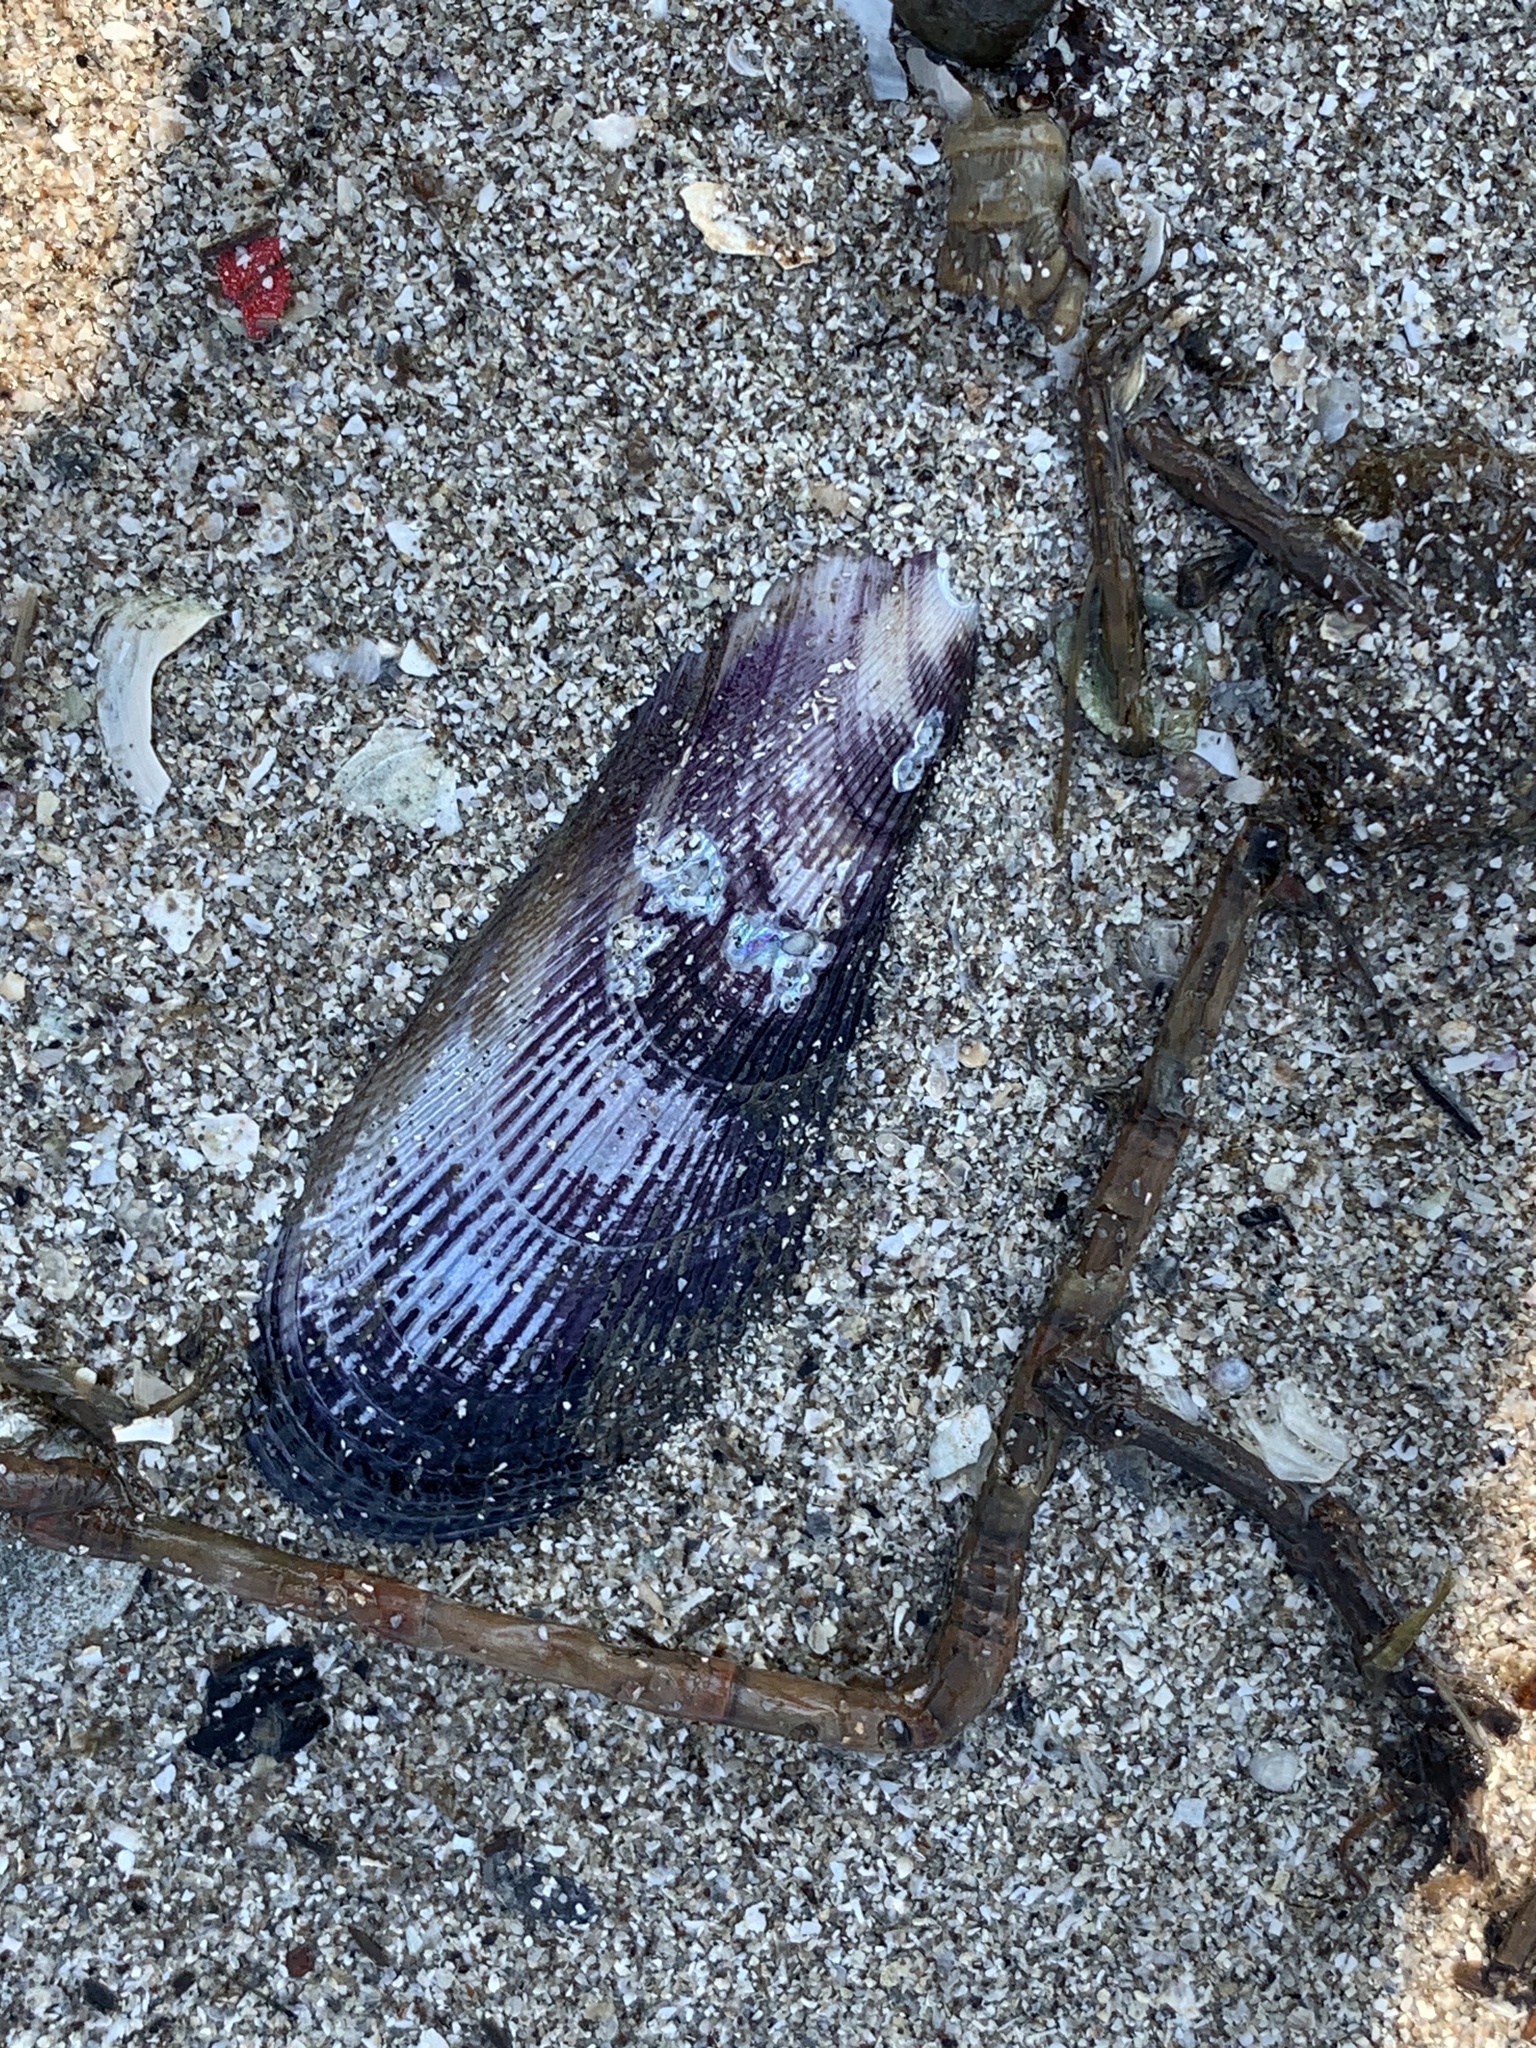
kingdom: Animalia
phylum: Mollusca
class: Bivalvia
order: Mytilida
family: Mytilidae
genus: Geukensia
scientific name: Geukensia demissa
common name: Ribbed mussel
